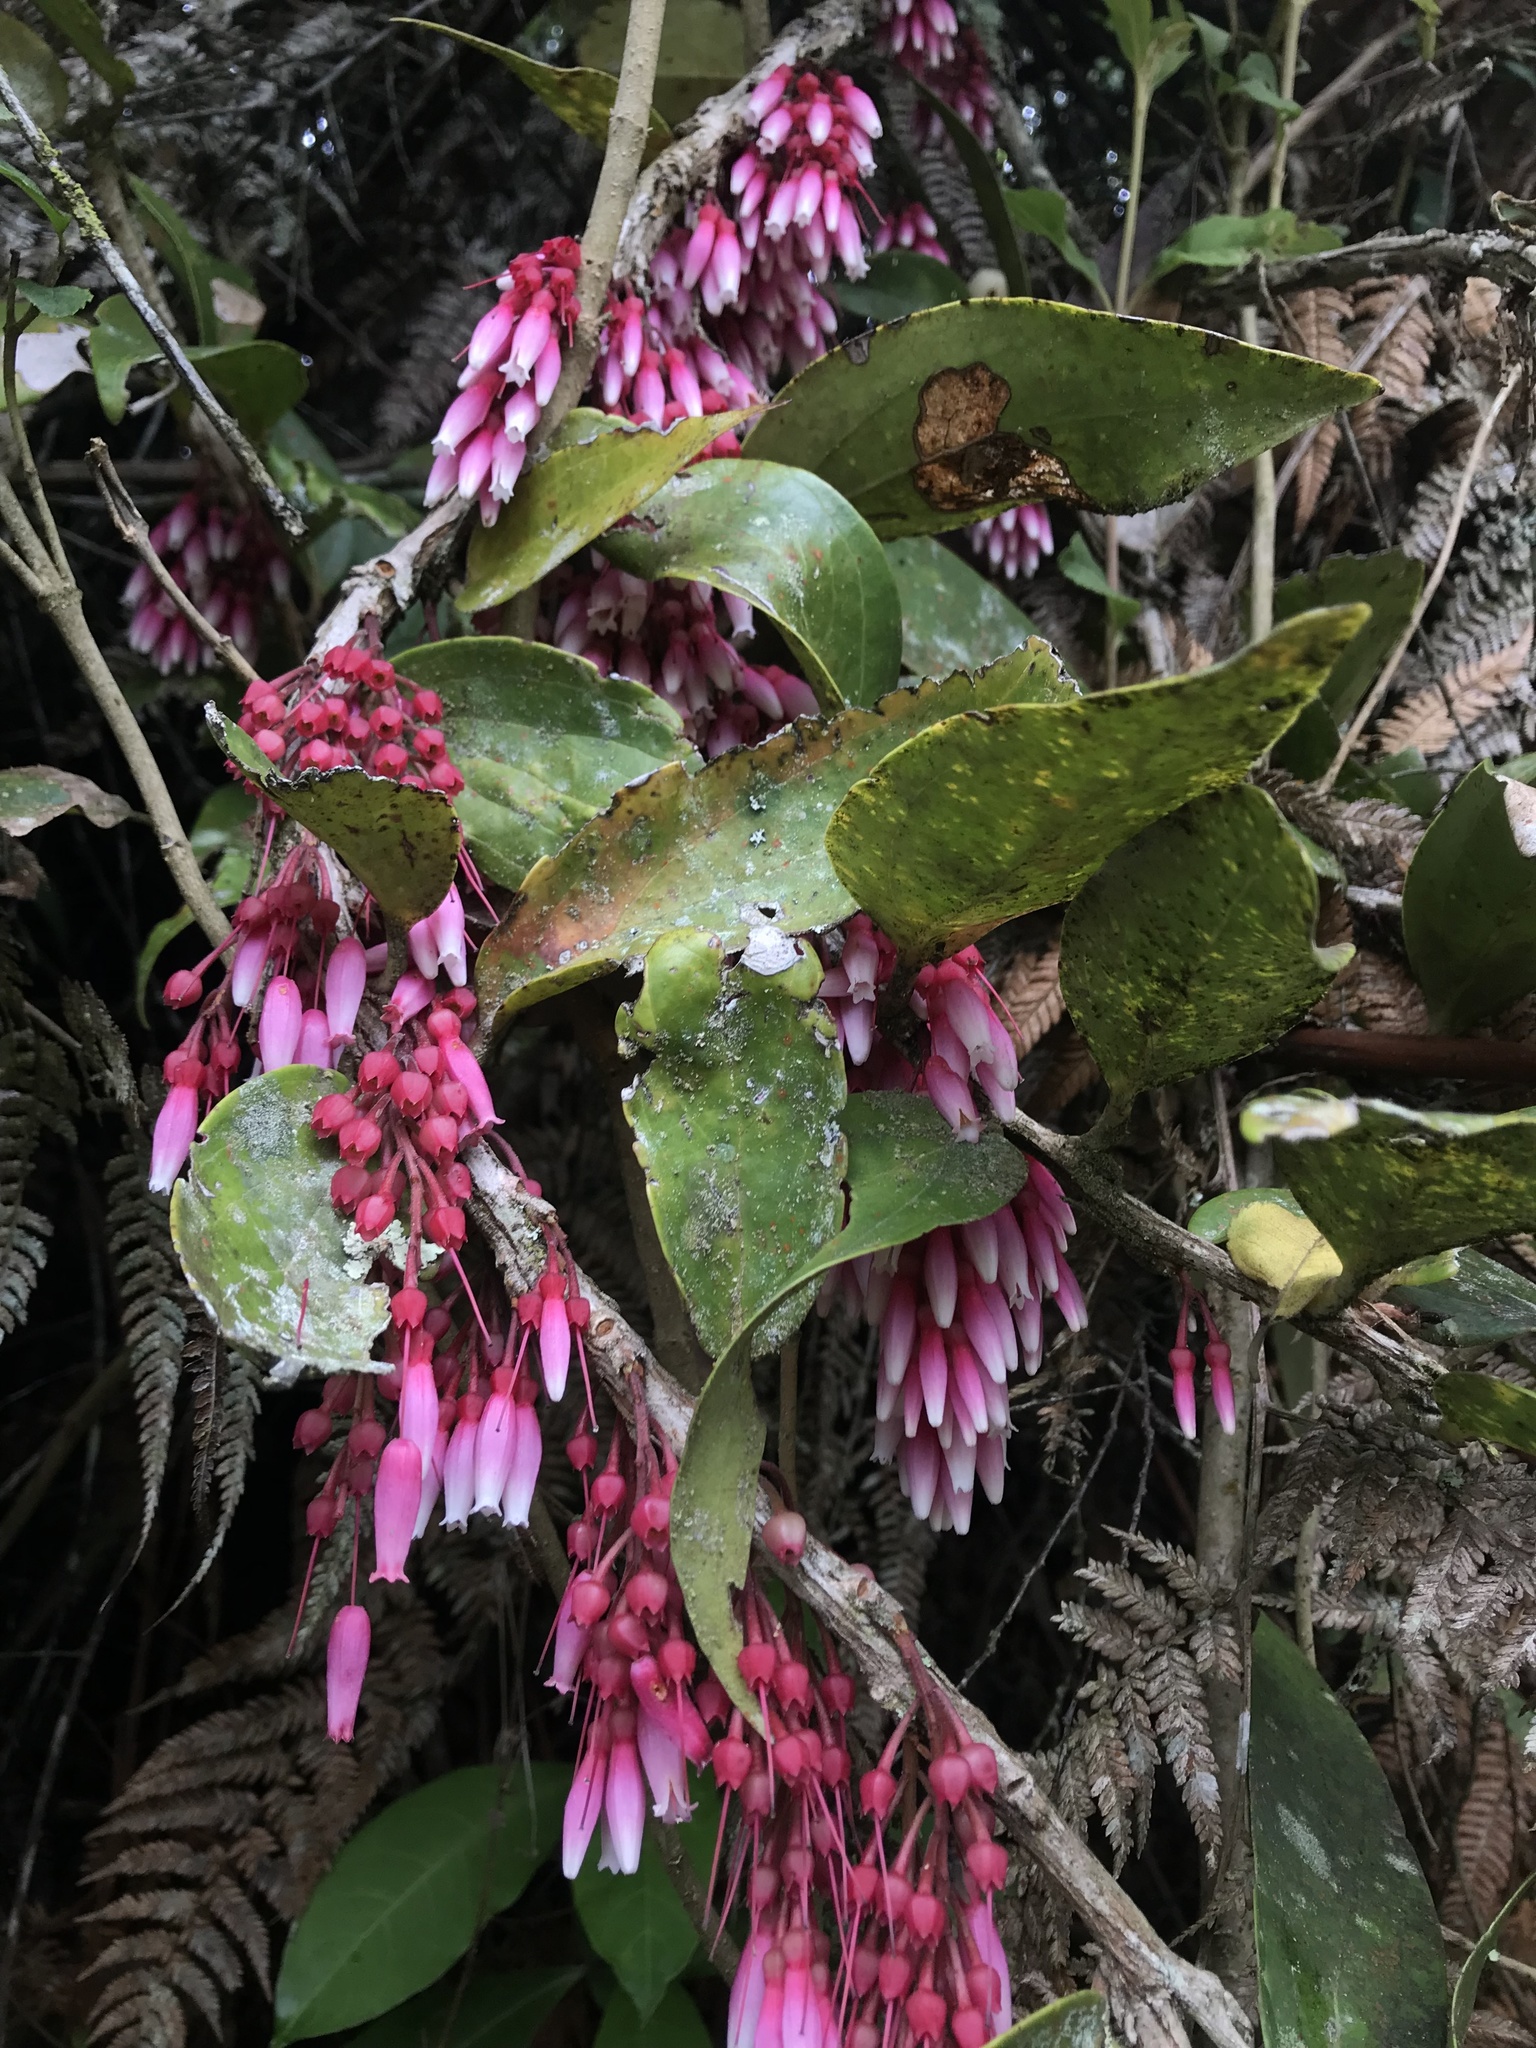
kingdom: Plantae
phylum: Tracheophyta
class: Magnoliopsida
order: Ericales
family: Ericaceae
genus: Thibaudia
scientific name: Thibaudia floribunda
